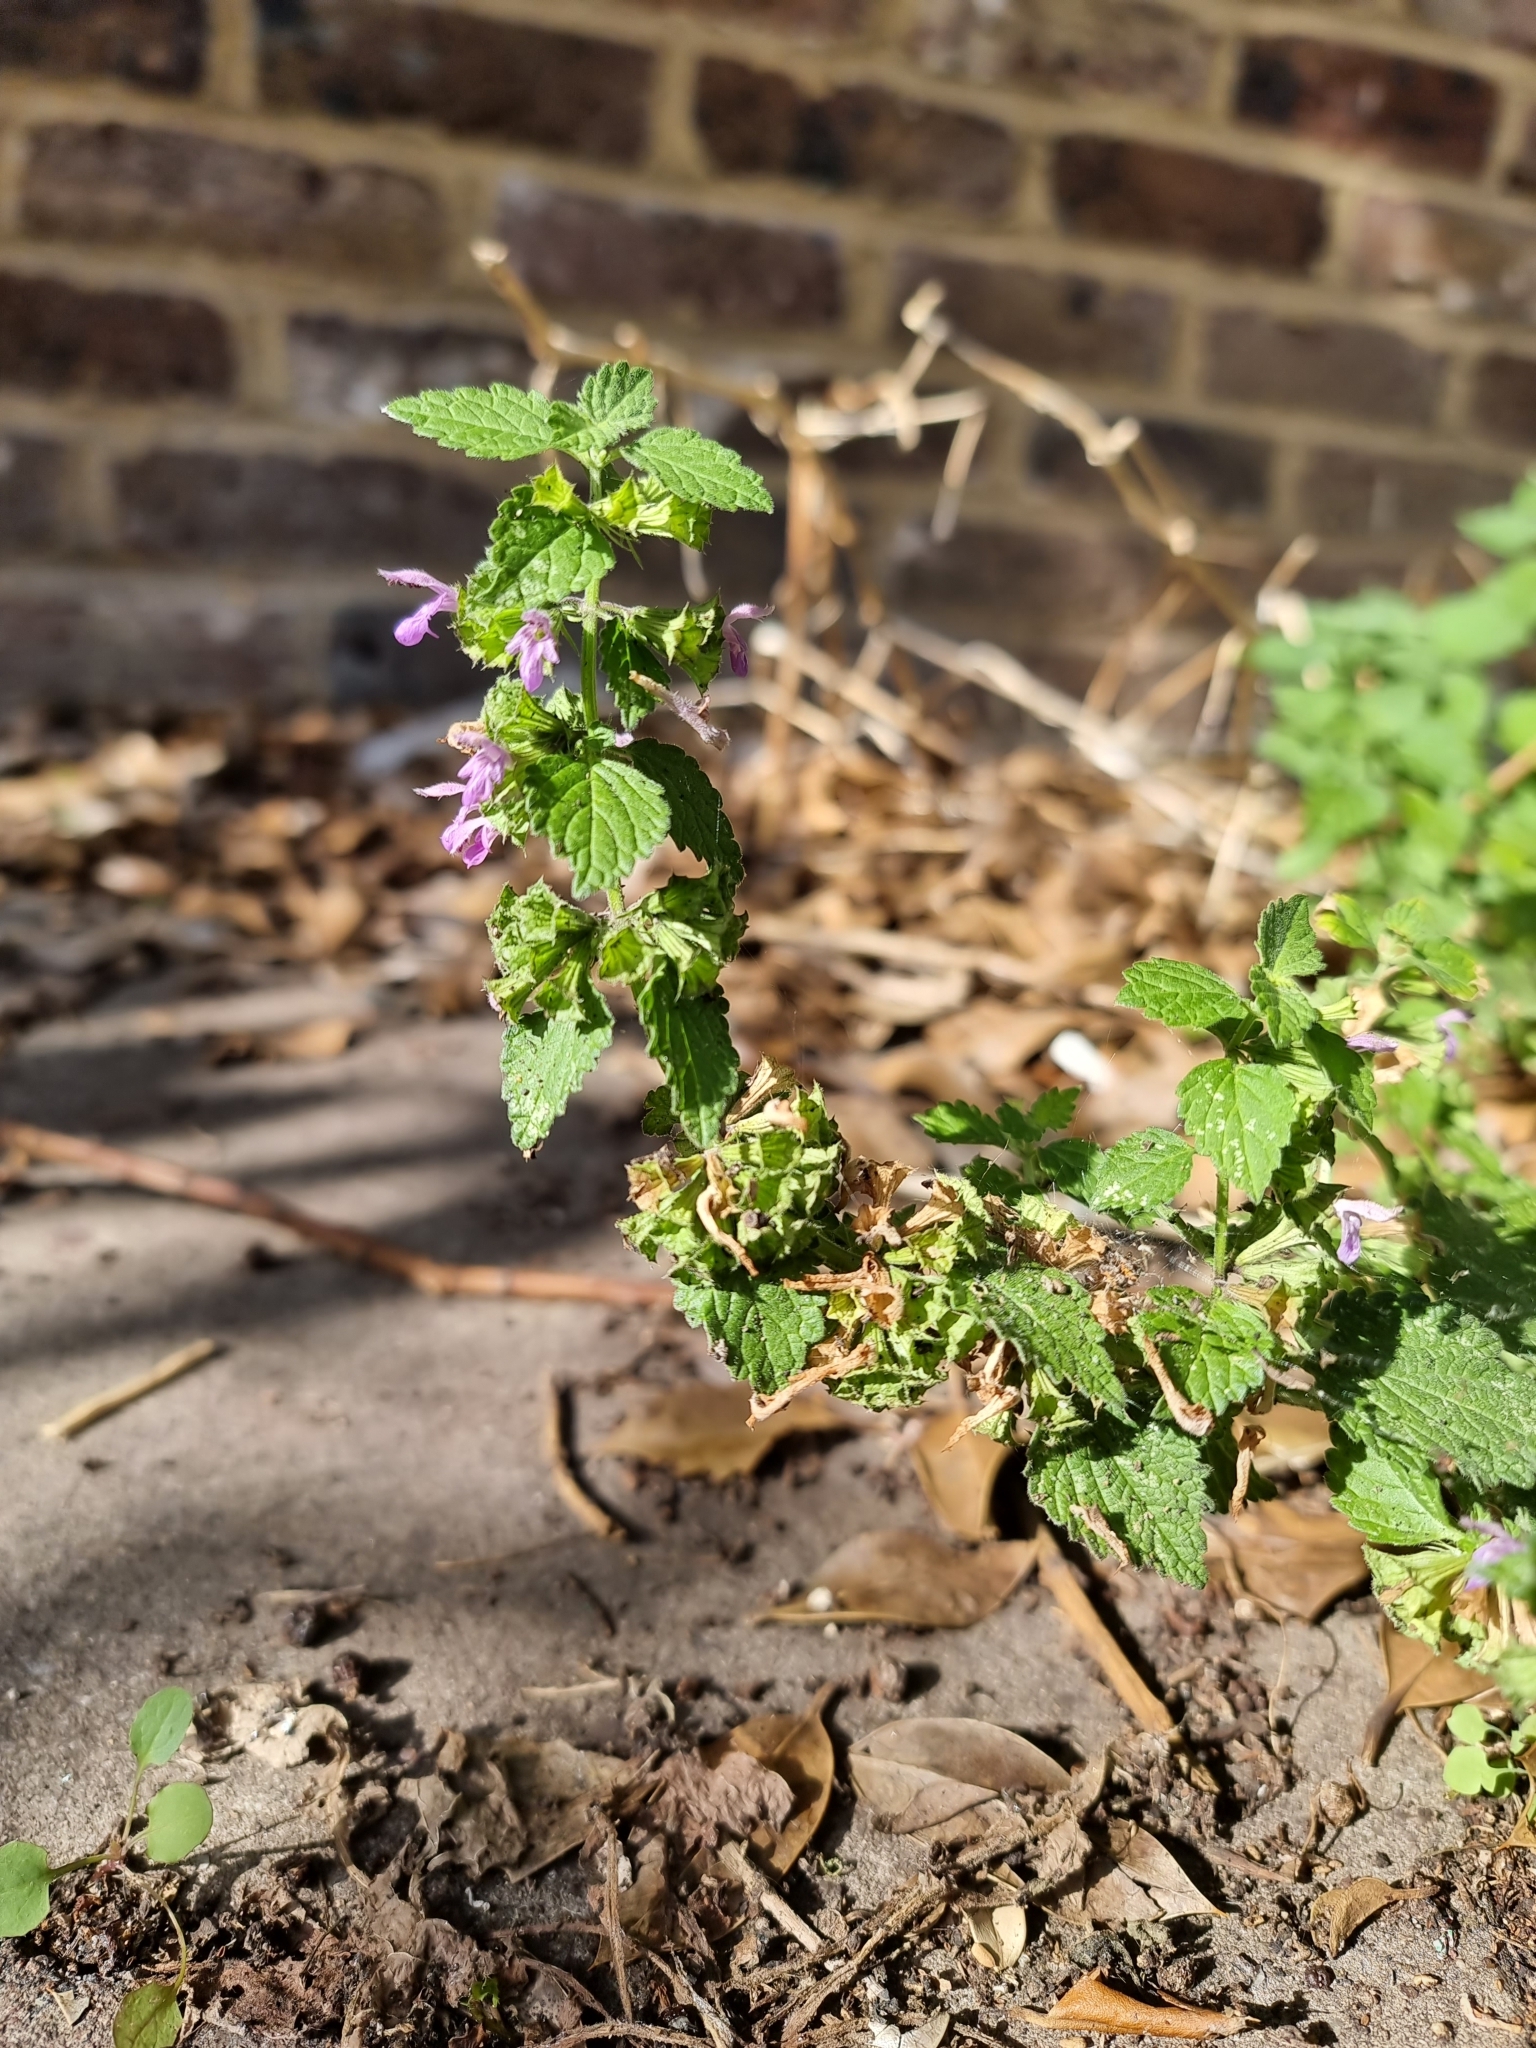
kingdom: Plantae
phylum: Tracheophyta
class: Magnoliopsida
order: Lamiales
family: Lamiaceae
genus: Ballota
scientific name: Ballota nigra
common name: Black horehound
